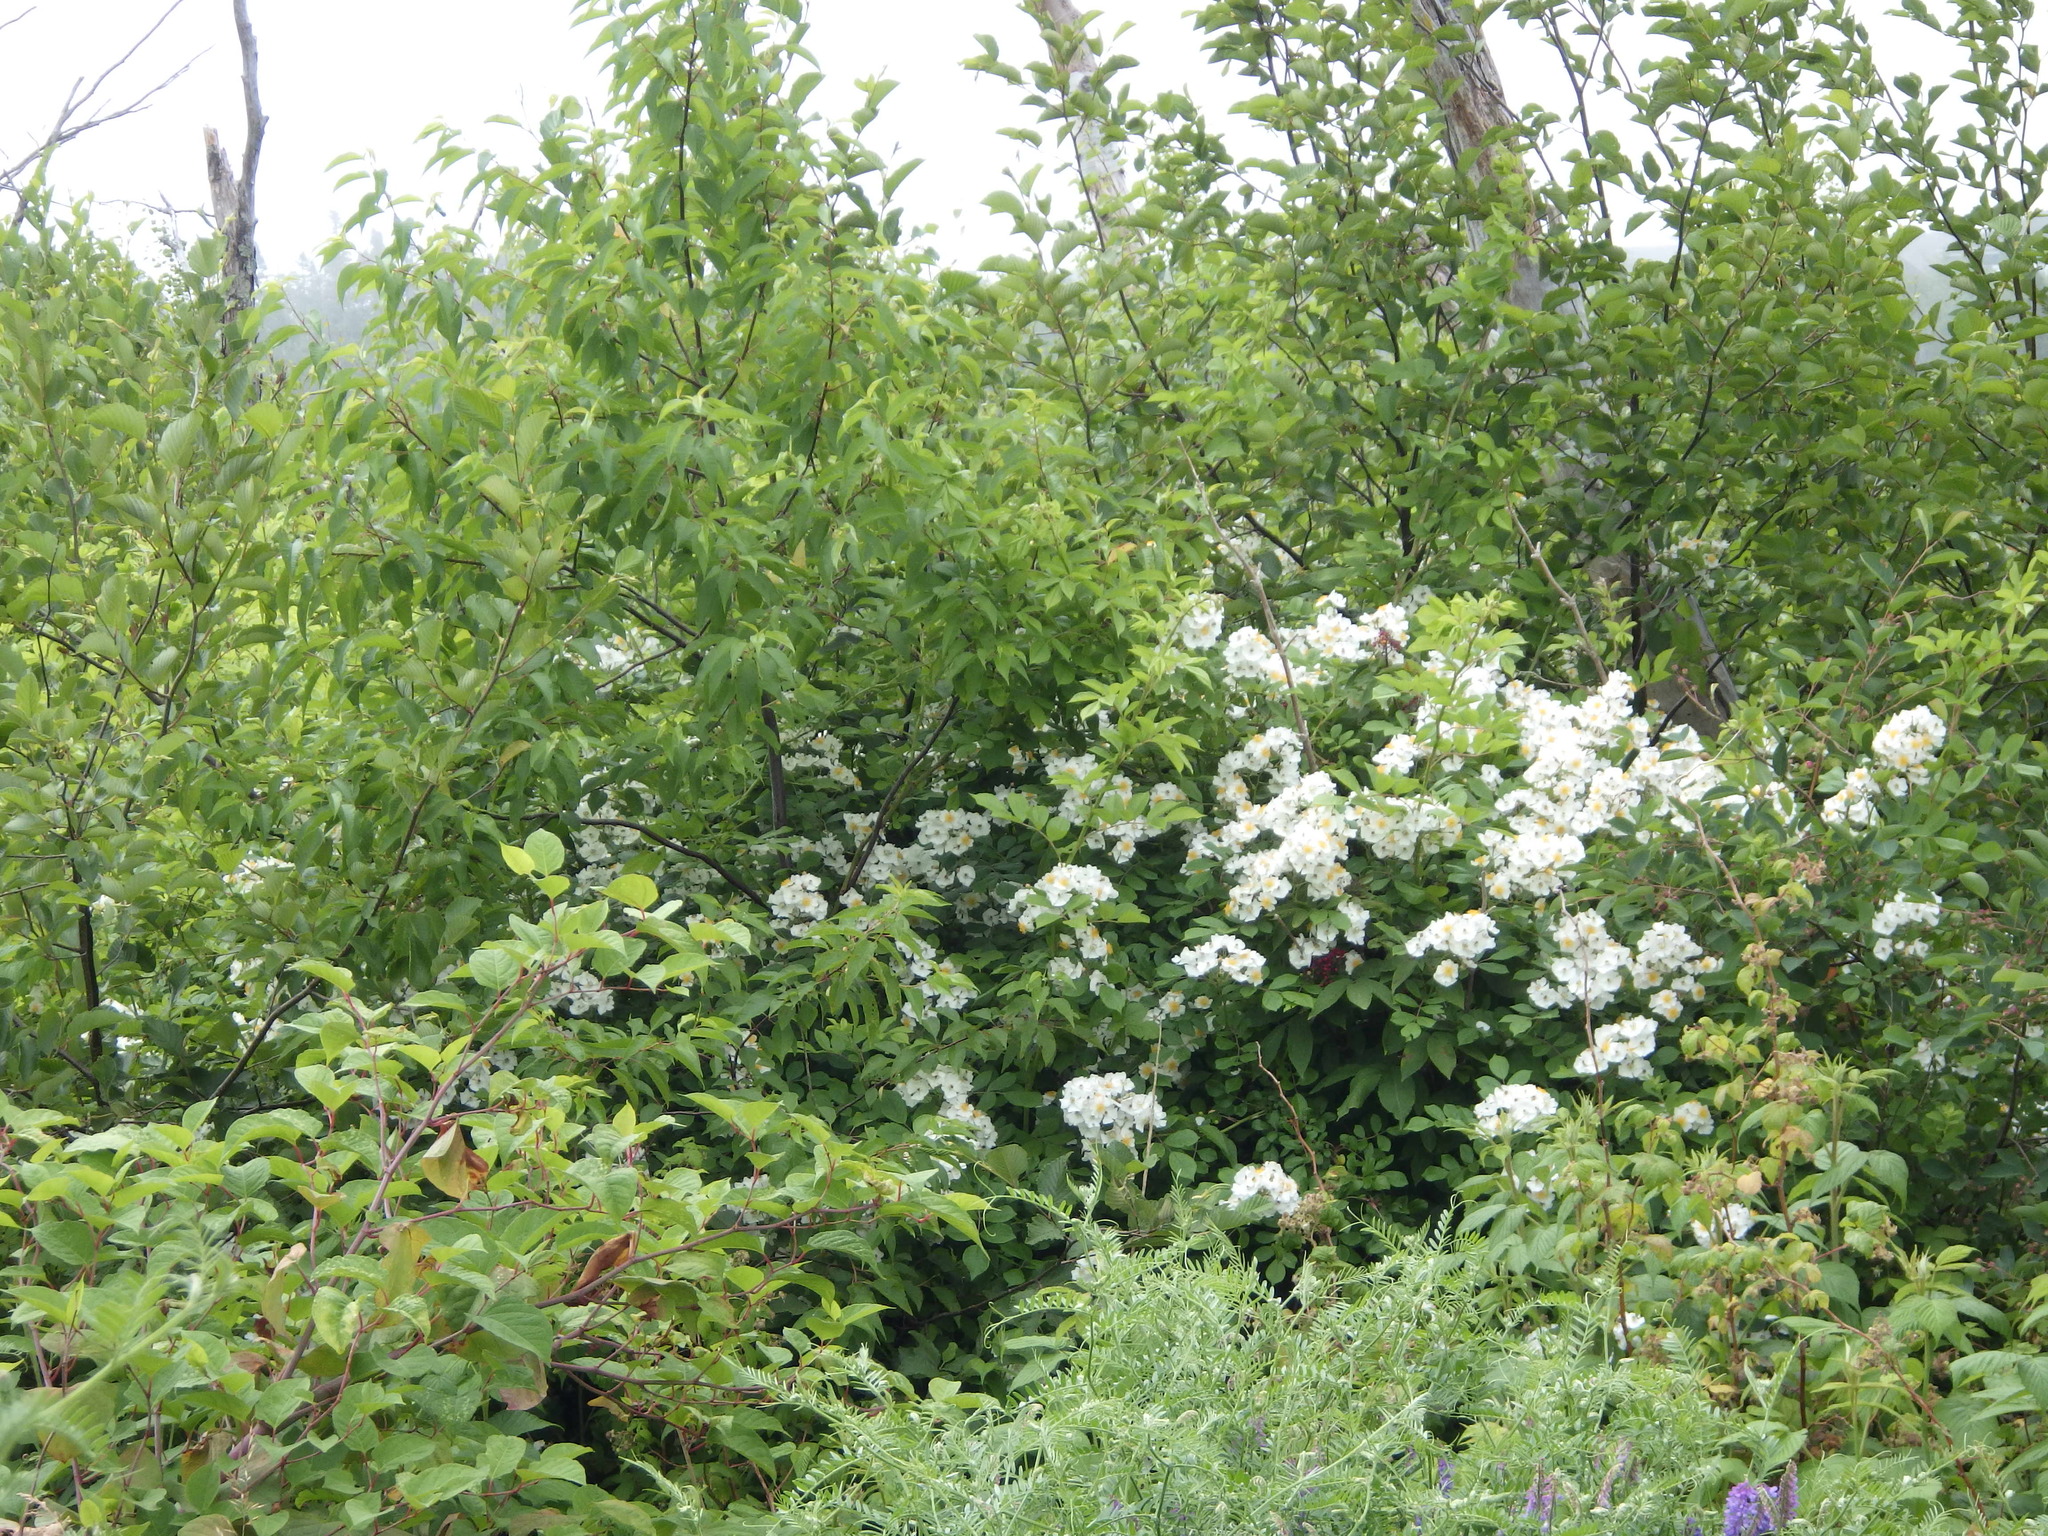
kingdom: Plantae
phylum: Tracheophyta
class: Magnoliopsida
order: Rosales
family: Rosaceae
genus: Rosa
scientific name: Rosa multiflora
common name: Multiflora rose
